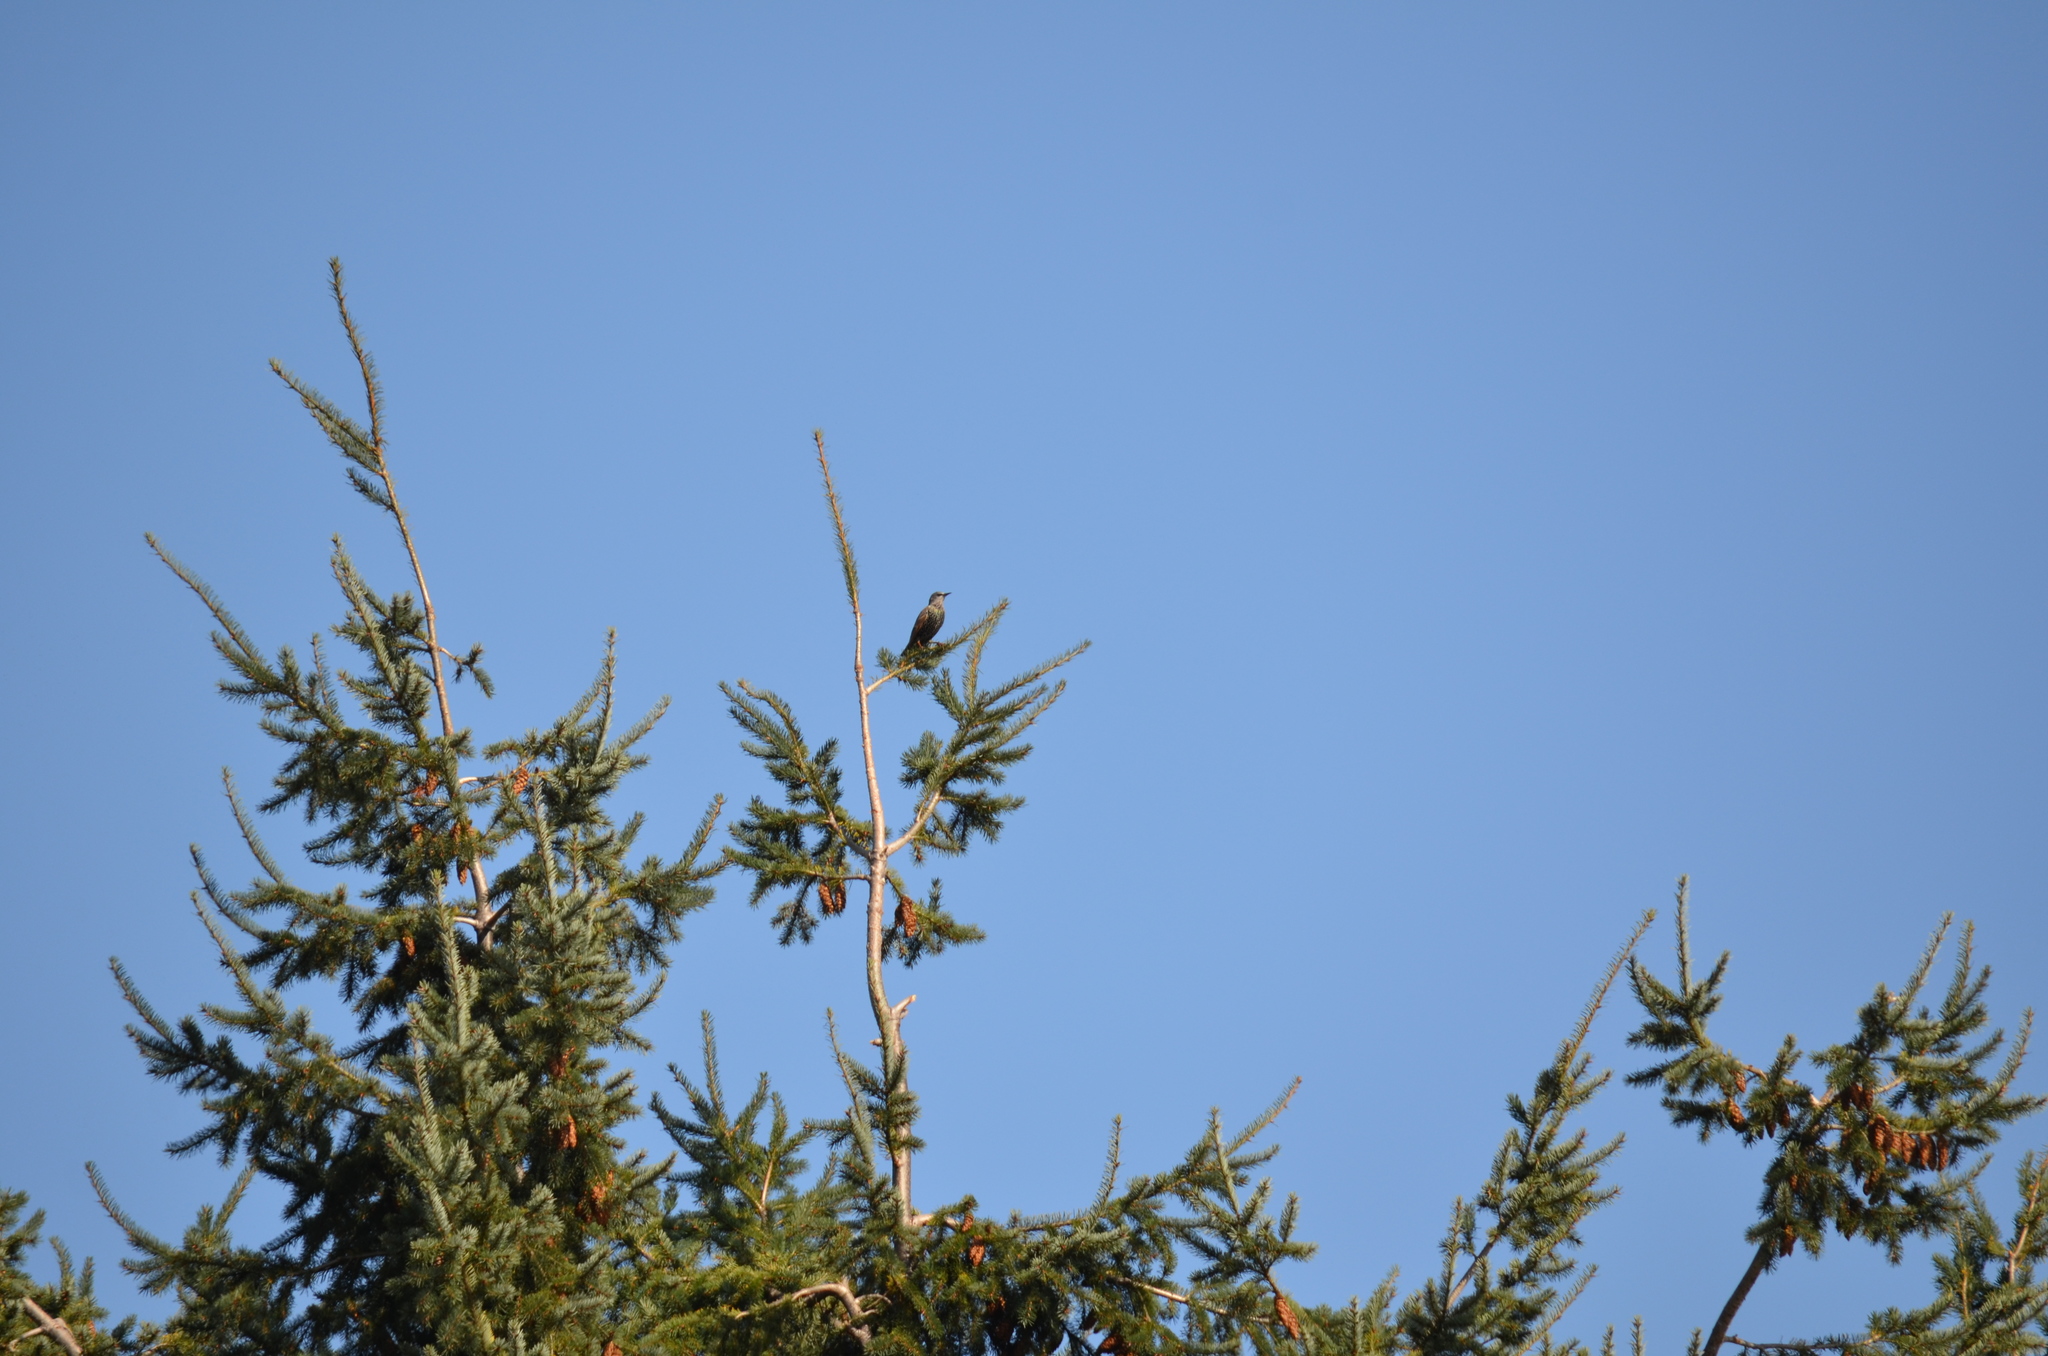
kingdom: Animalia
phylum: Chordata
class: Aves
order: Passeriformes
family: Sturnidae
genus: Sturnus
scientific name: Sturnus vulgaris
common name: Common starling
